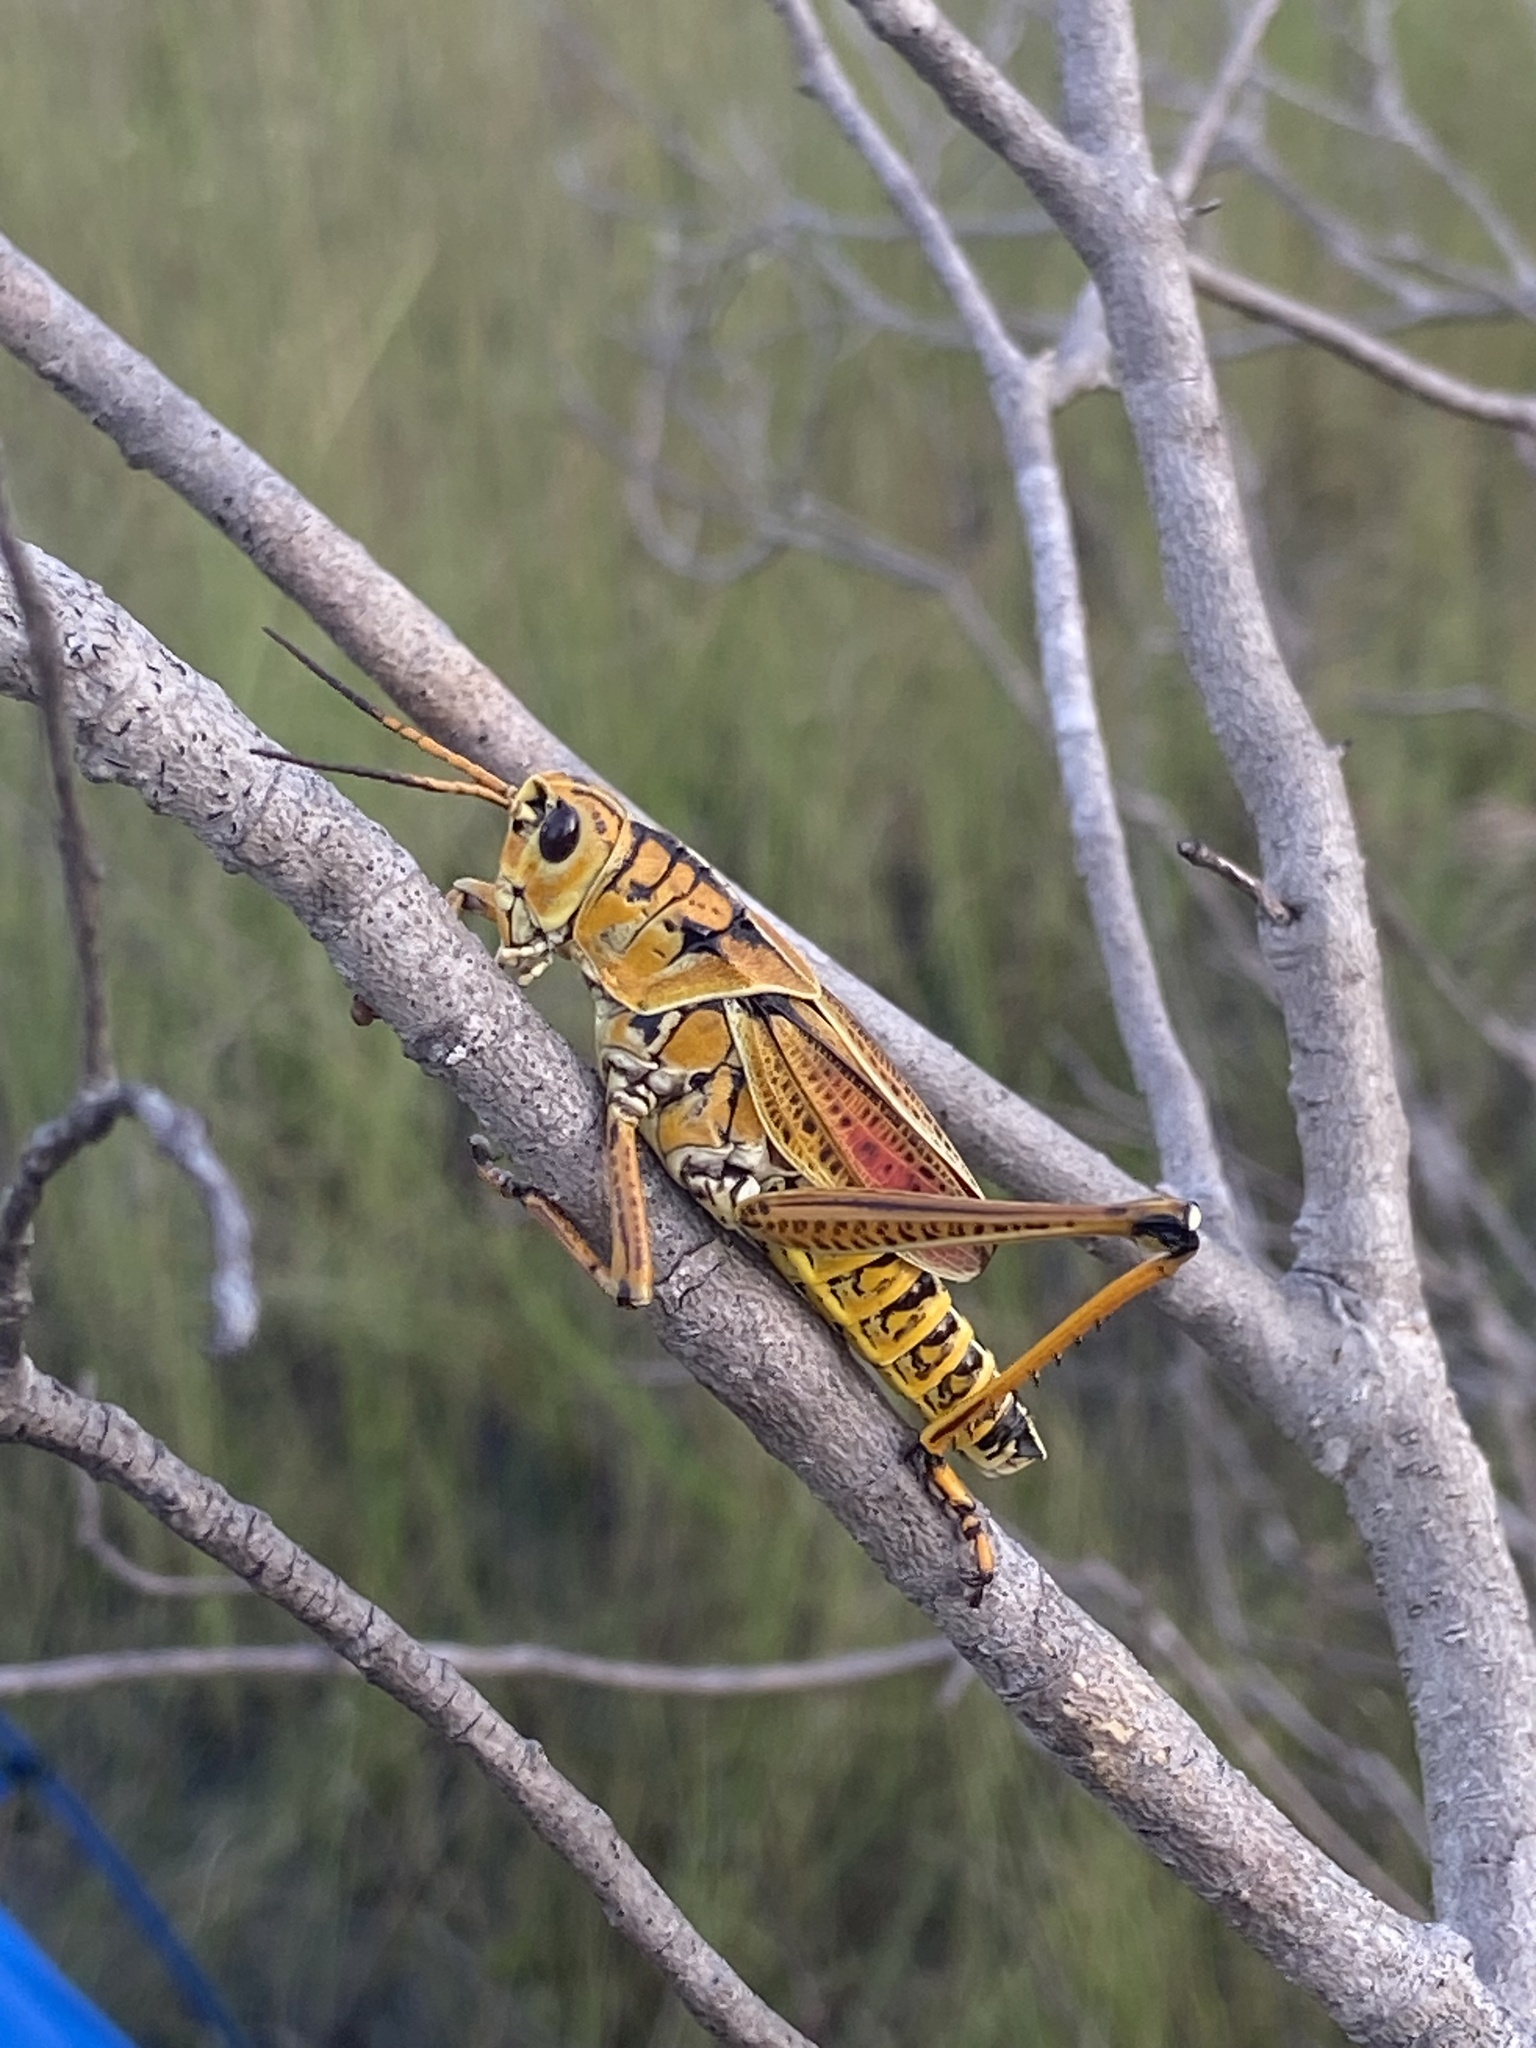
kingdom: Animalia
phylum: Arthropoda
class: Insecta
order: Orthoptera
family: Romaleidae
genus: Romalea
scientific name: Romalea microptera
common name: Eastern lubber grasshopper
